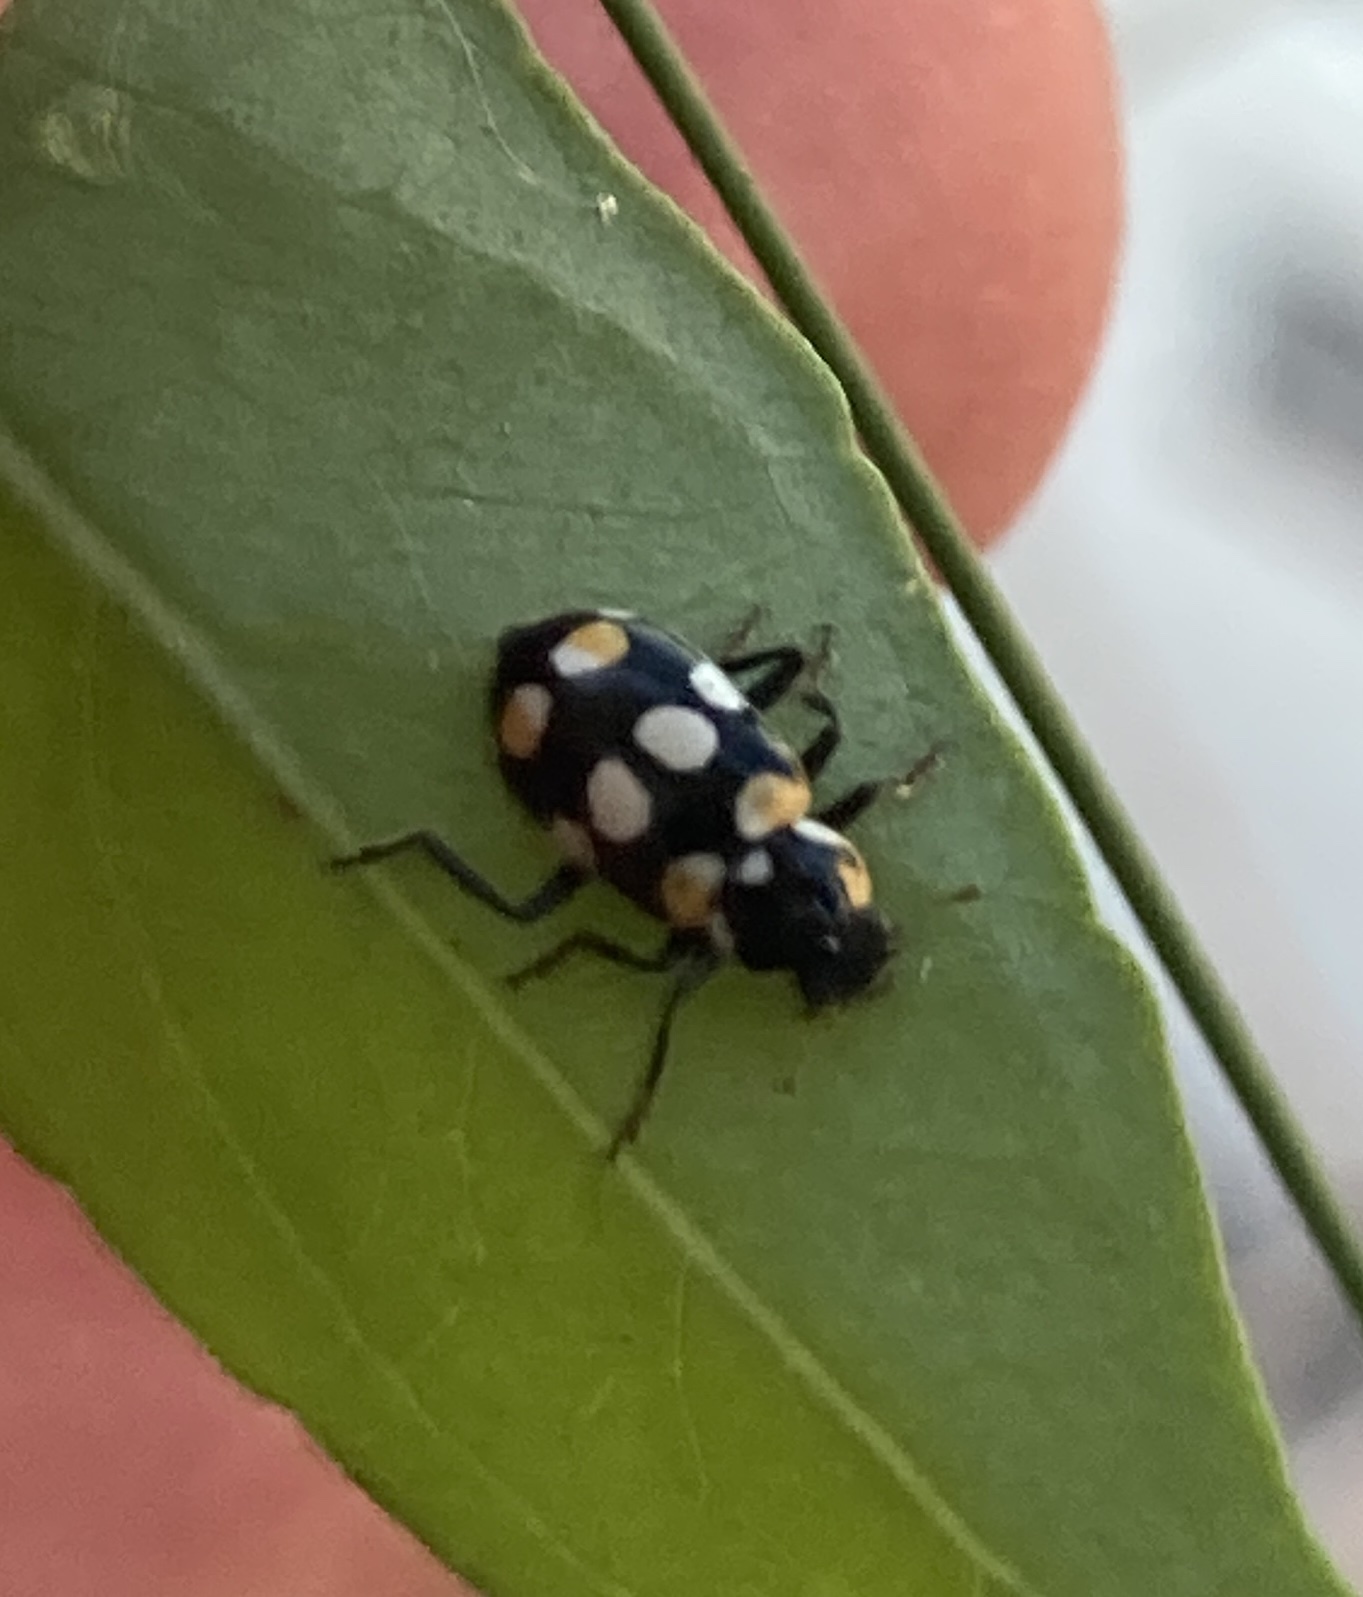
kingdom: Animalia
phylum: Arthropoda
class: Insecta
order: Coleoptera
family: Coccinellidae
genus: Eriopis
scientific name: Eriopis connexa
